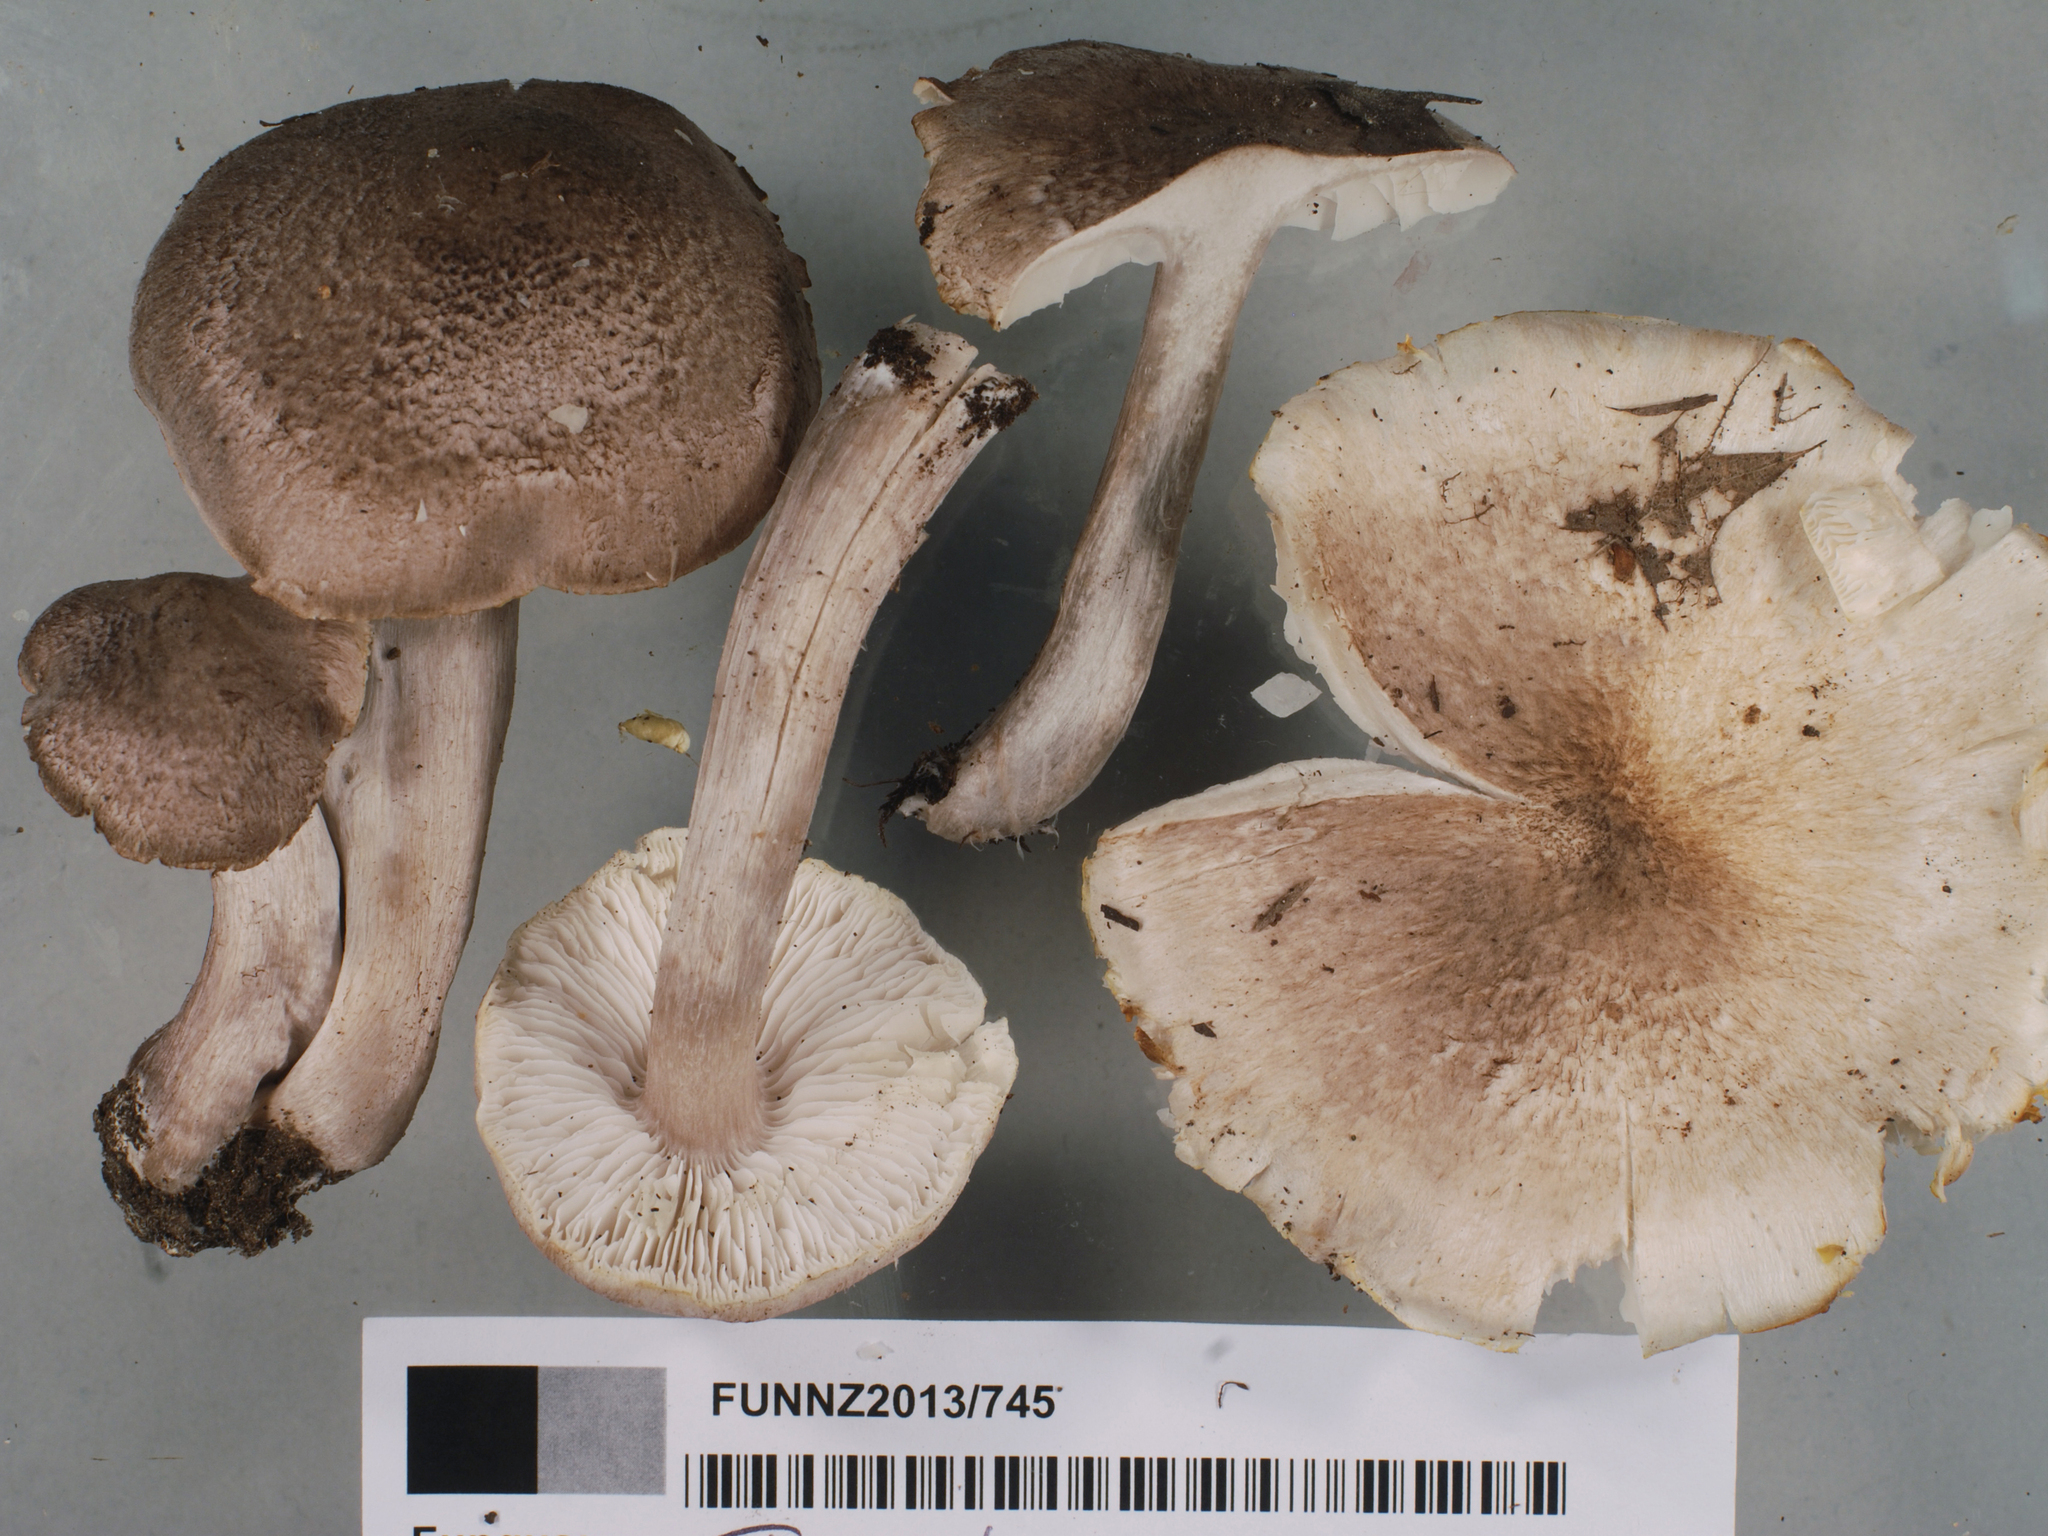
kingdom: Fungi
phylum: Basidiomycota
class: Agaricomycetes
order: Agaricales
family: Tricholomataceae
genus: Tricholoma
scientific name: Tricholoma scalpturatum
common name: Yellowing knight
